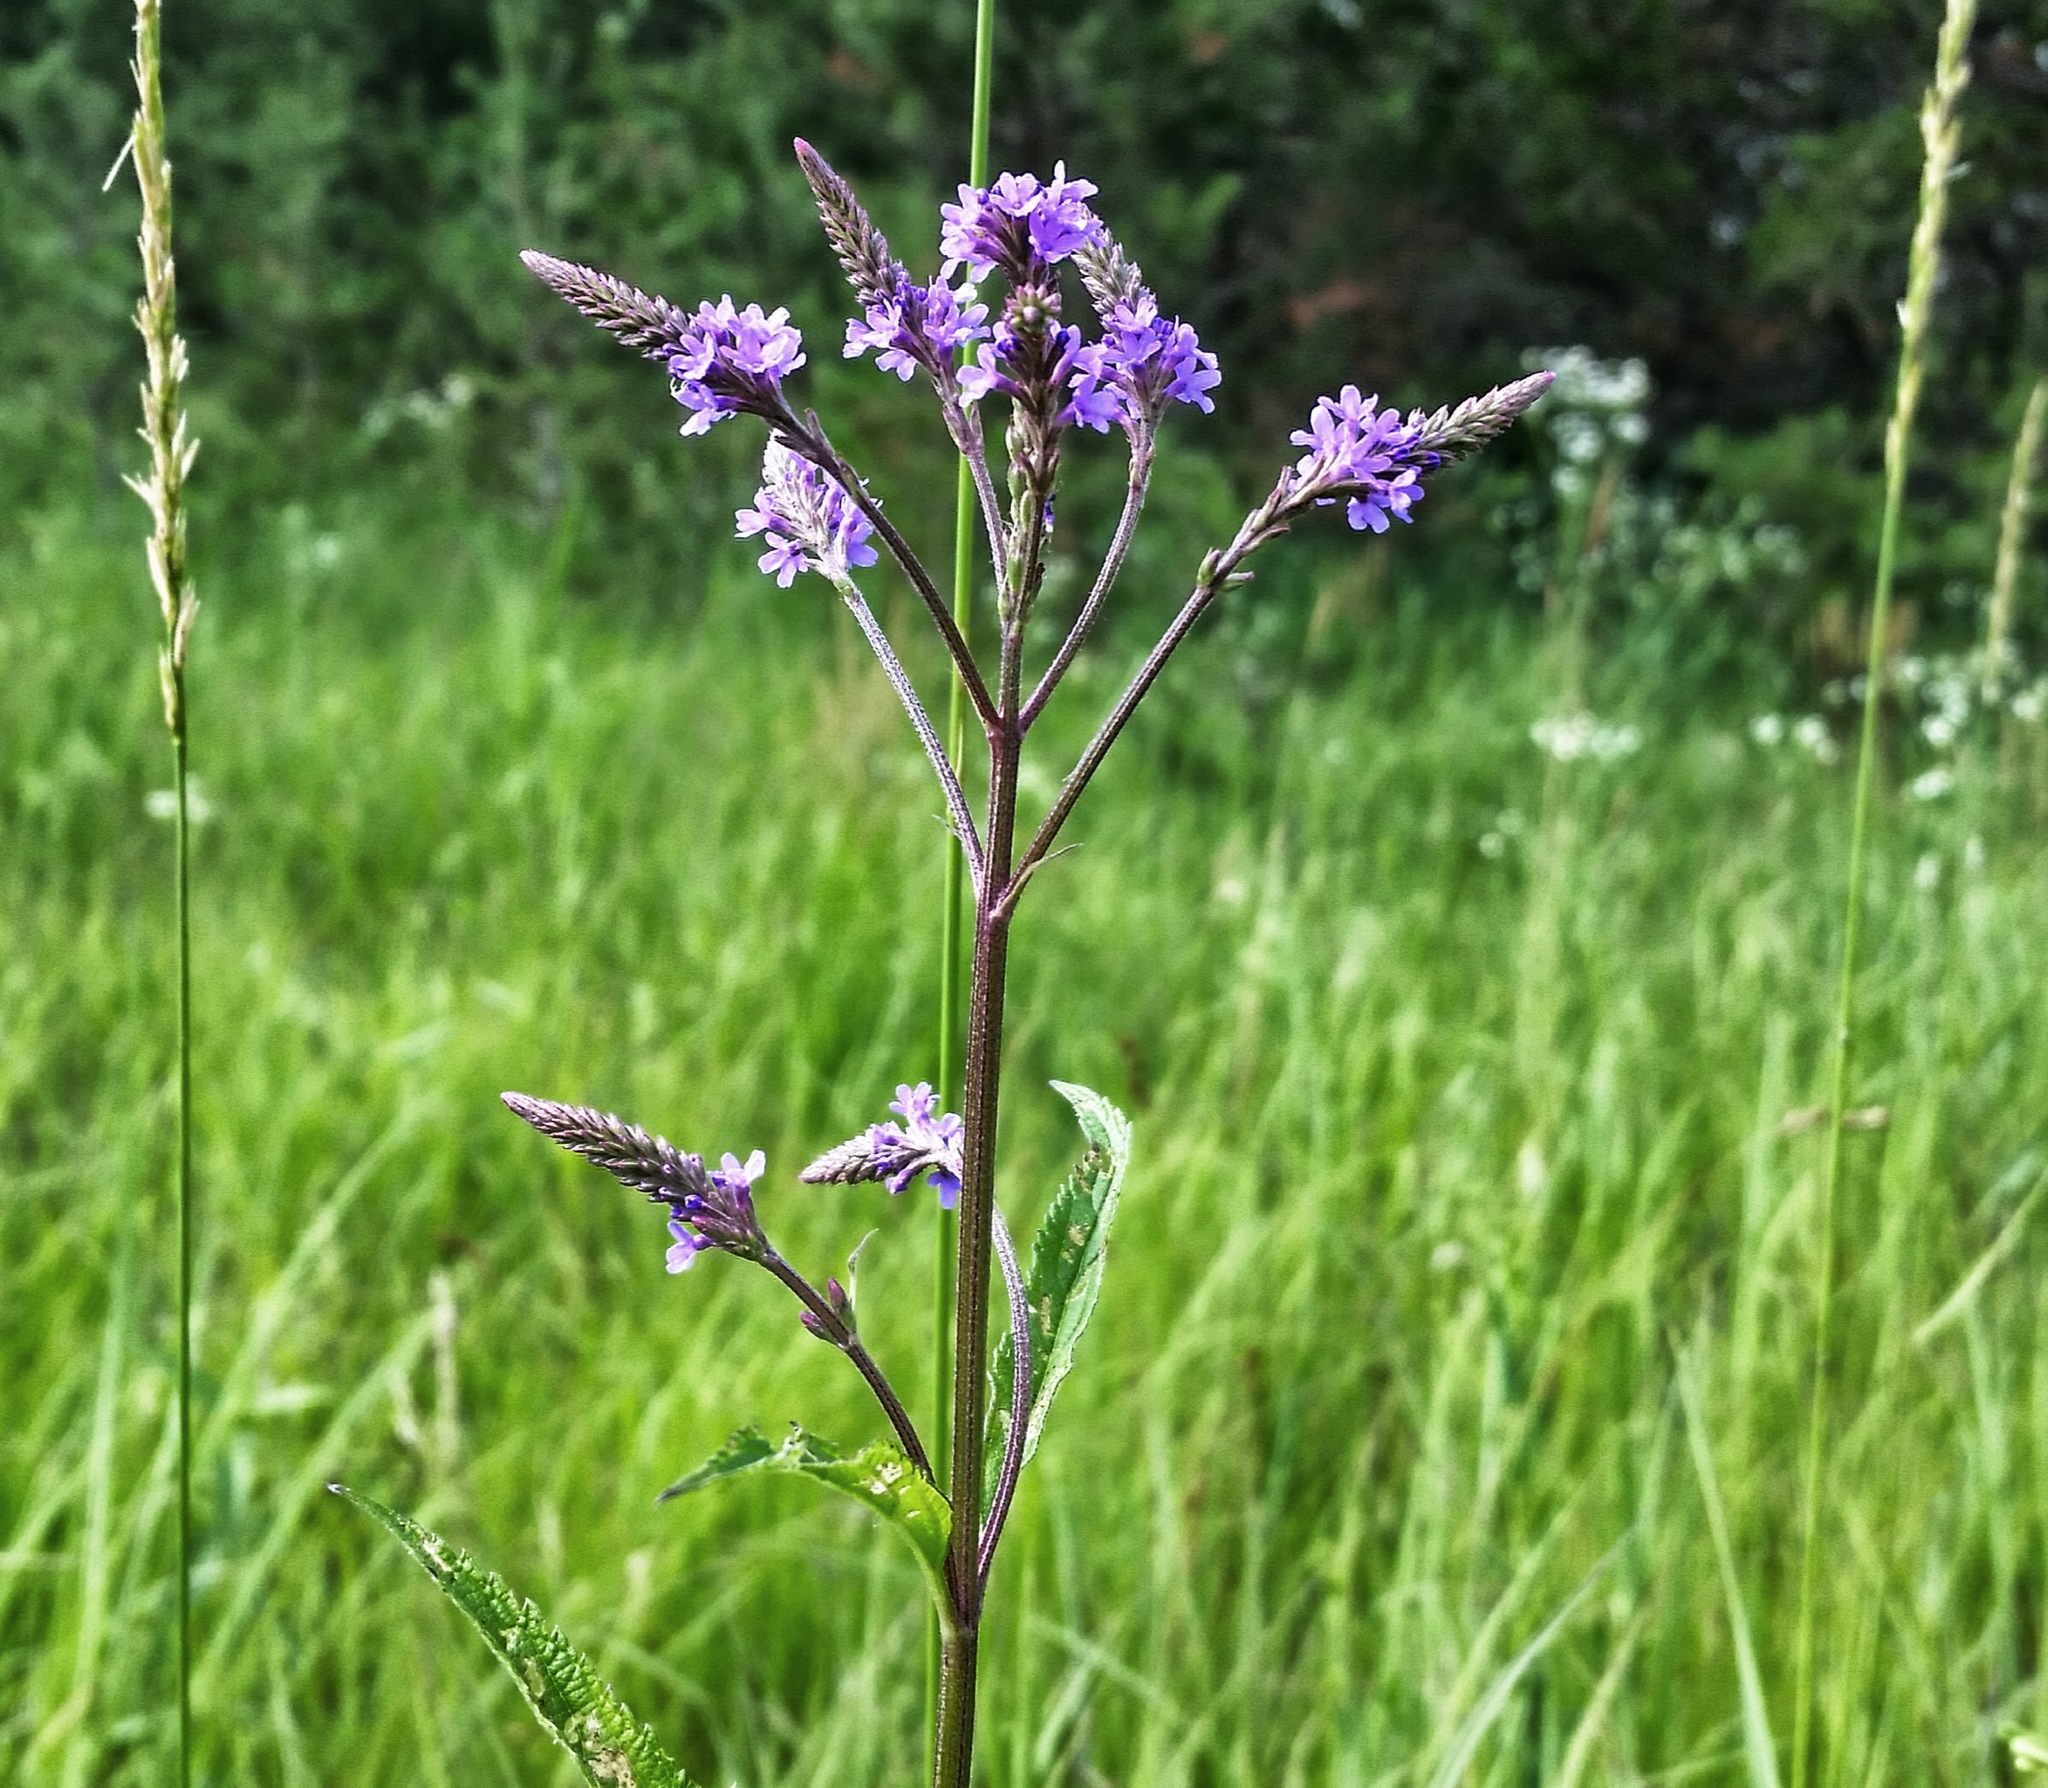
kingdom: Plantae
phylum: Tracheophyta
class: Magnoliopsida
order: Lamiales
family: Verbenaceae
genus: Verbena
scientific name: Verbena hastata
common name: American blue vervain
